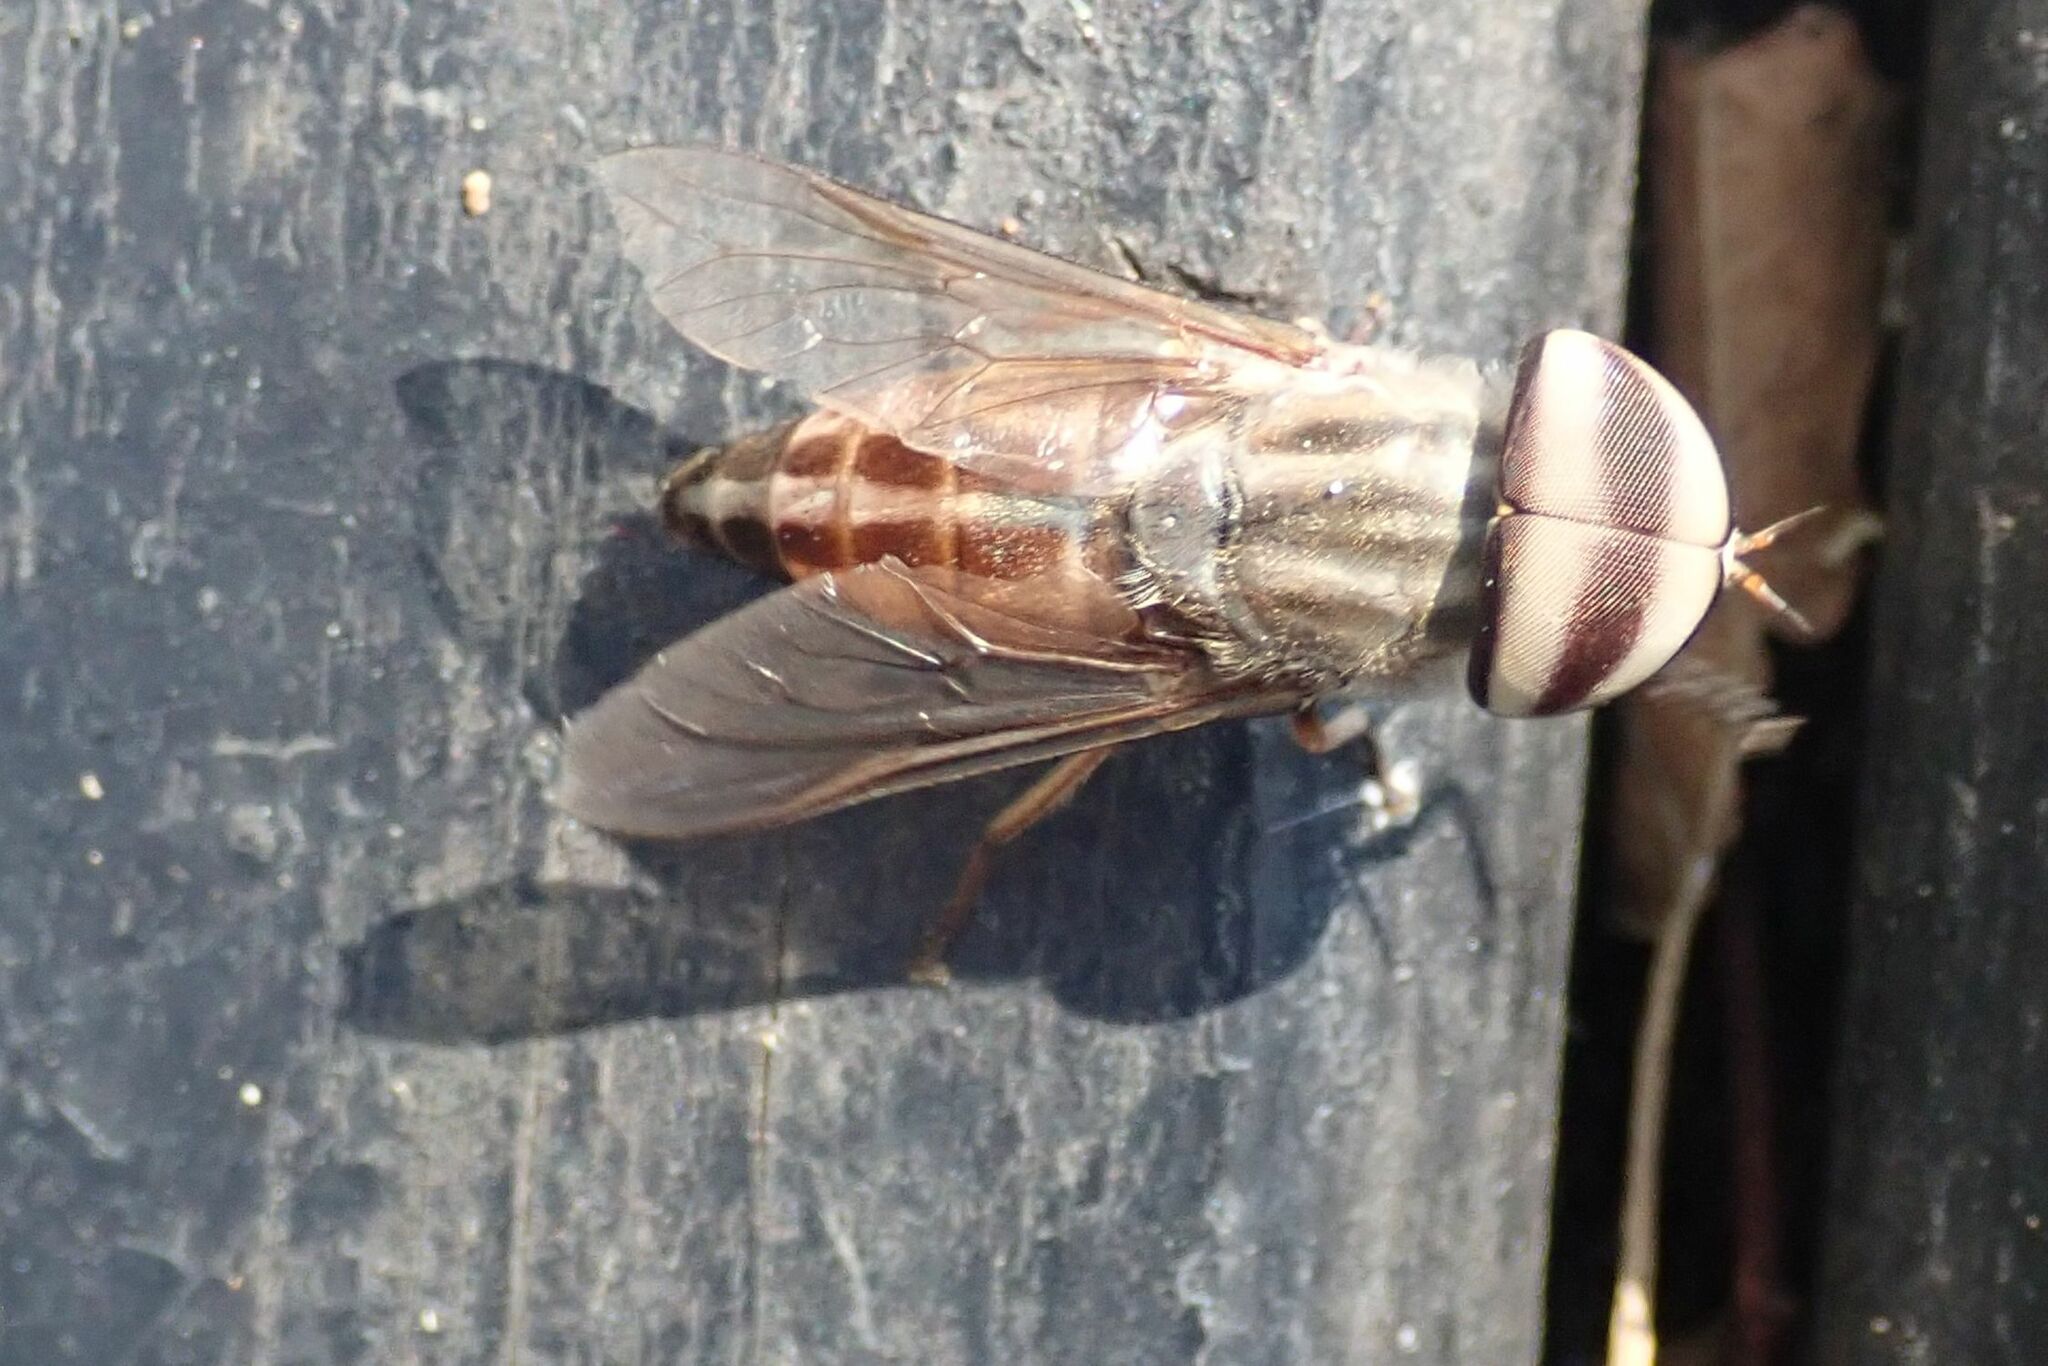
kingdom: Animalia
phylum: Arthropoda
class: Insecta
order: Diptera
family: Tabanidae
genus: Tabanus
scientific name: Tabanus taeniola
